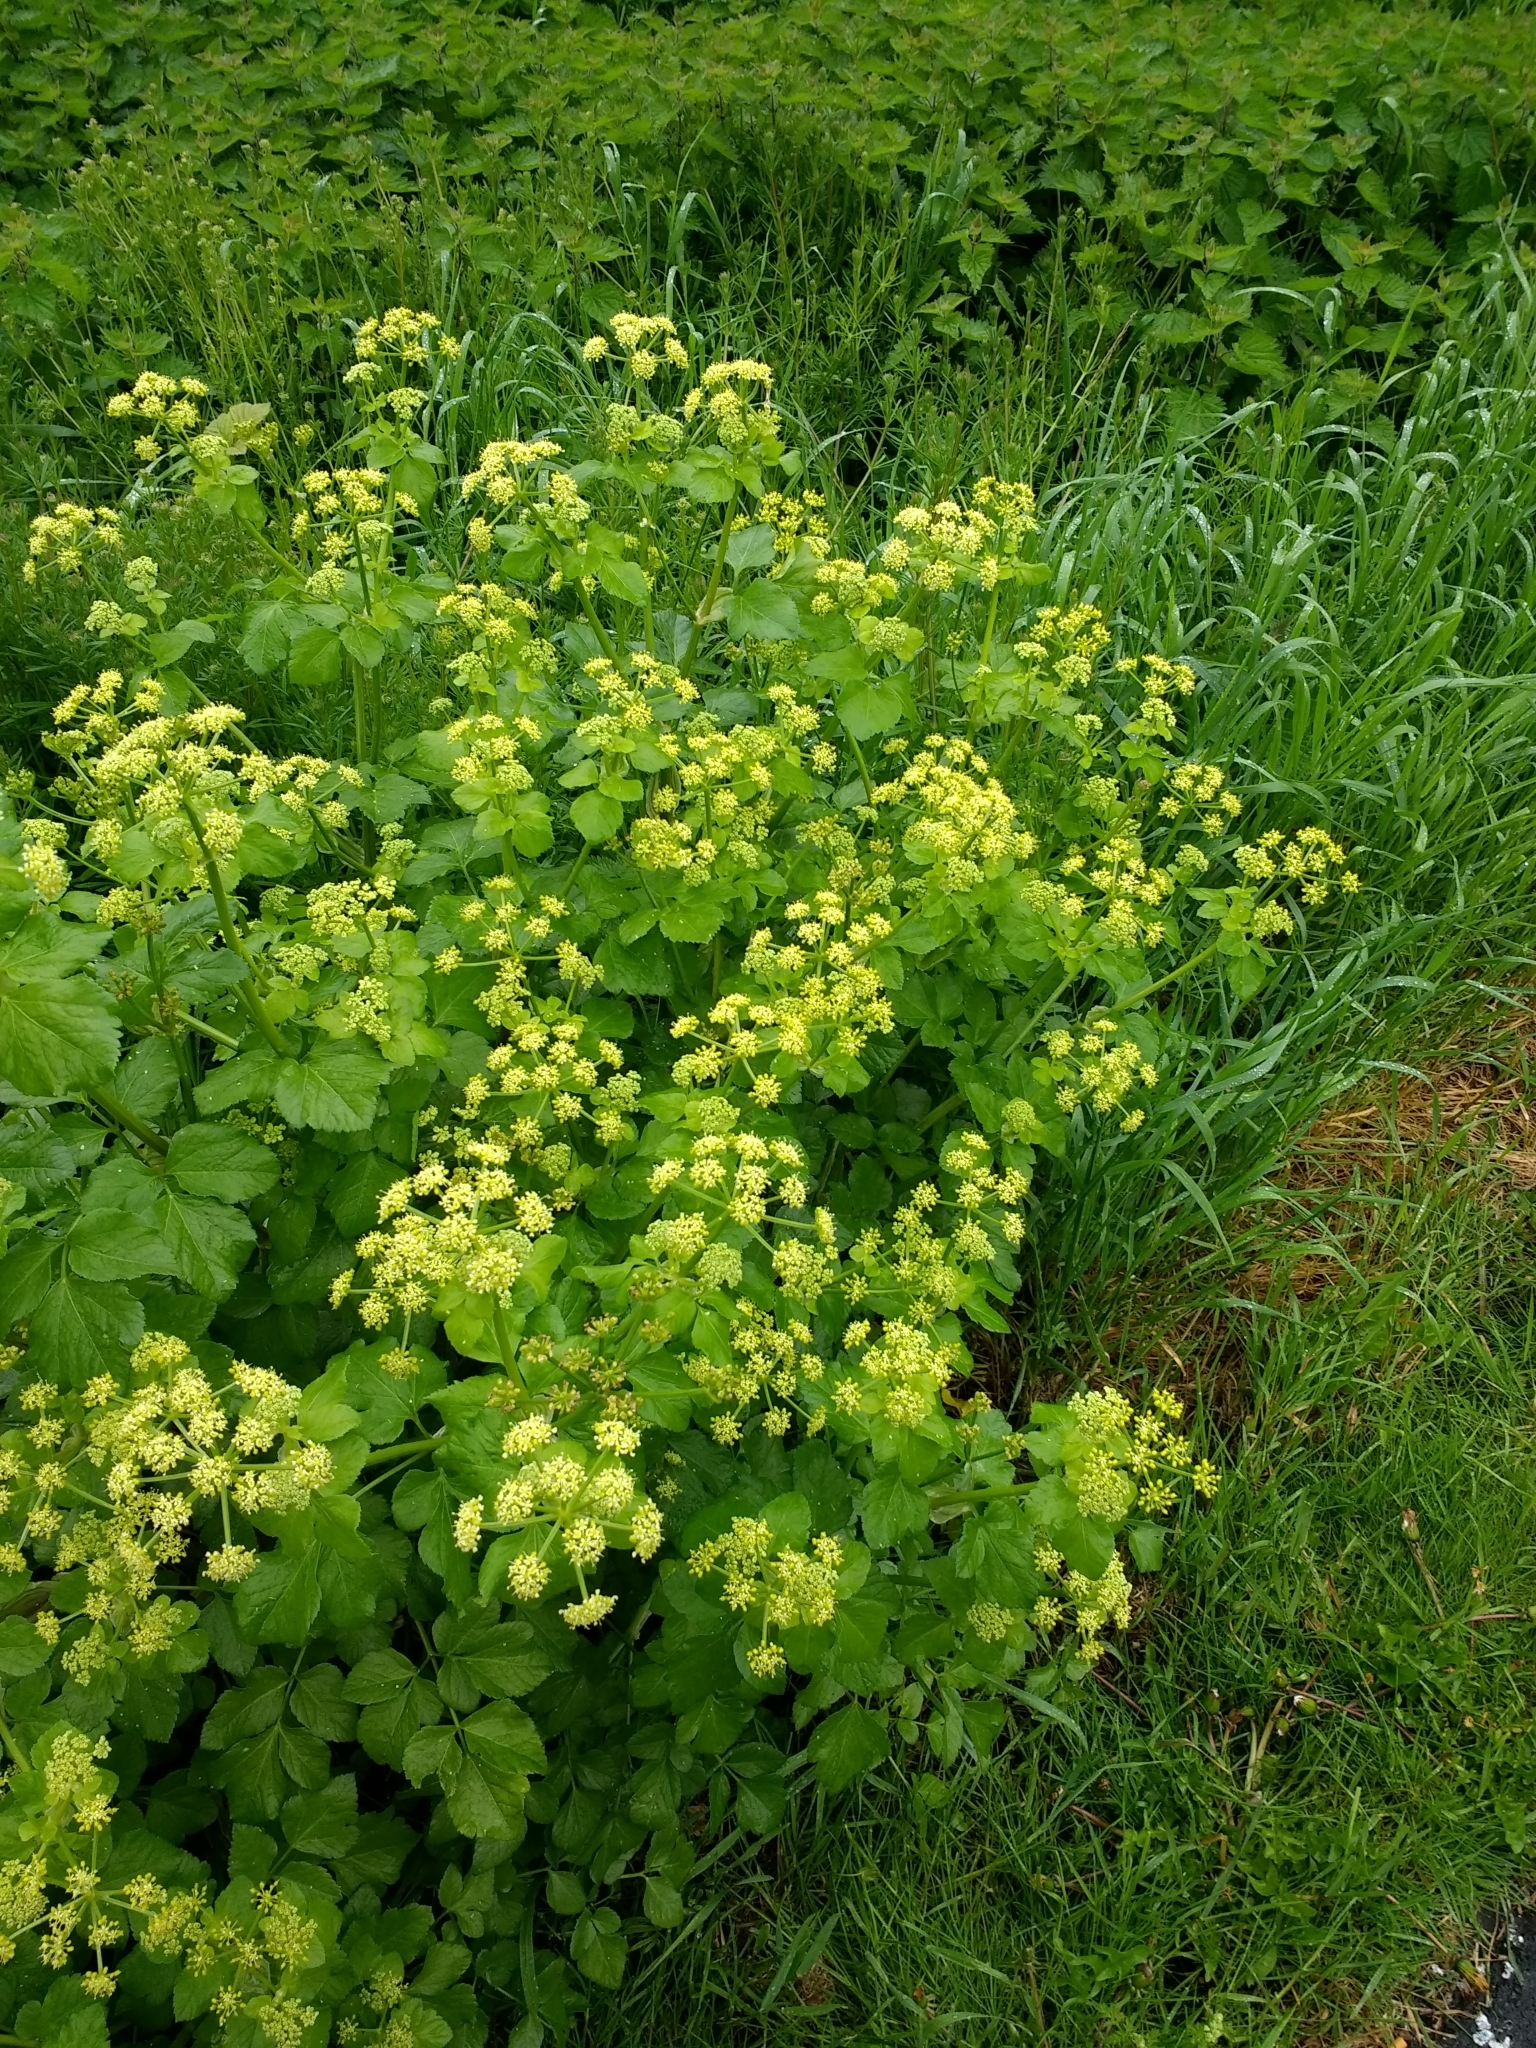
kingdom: Plantae
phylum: Tracheophyta
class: Magnoliopsida
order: Apiales
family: Apiaceae
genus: Smyrnium
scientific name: Smyrnium olusatrum
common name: Alexanders
